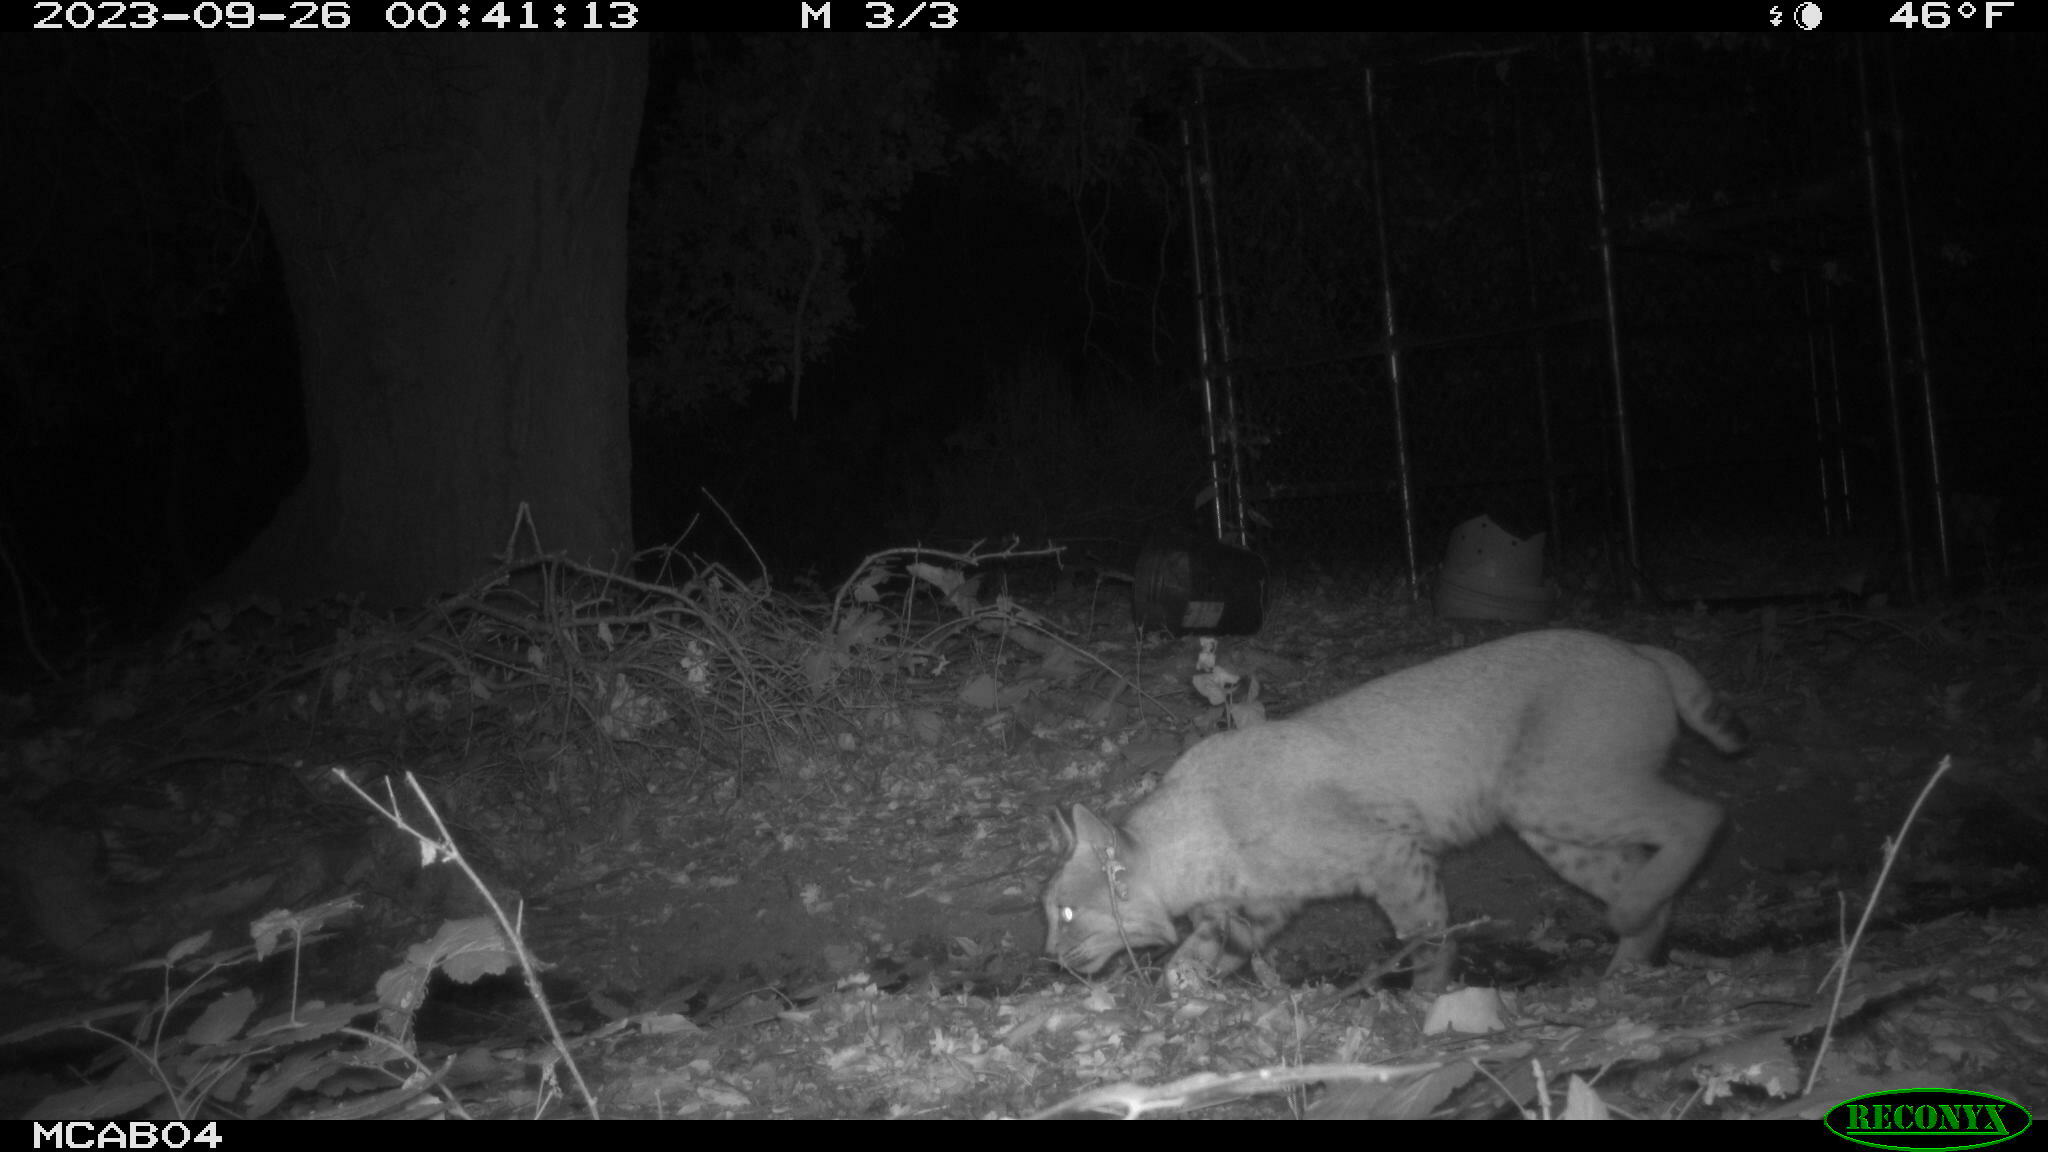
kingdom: Animalia
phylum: Chordata
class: Mammalia
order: Carnivora
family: Felidae
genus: Lynx
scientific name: Lynx rufus
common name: Bobcat
